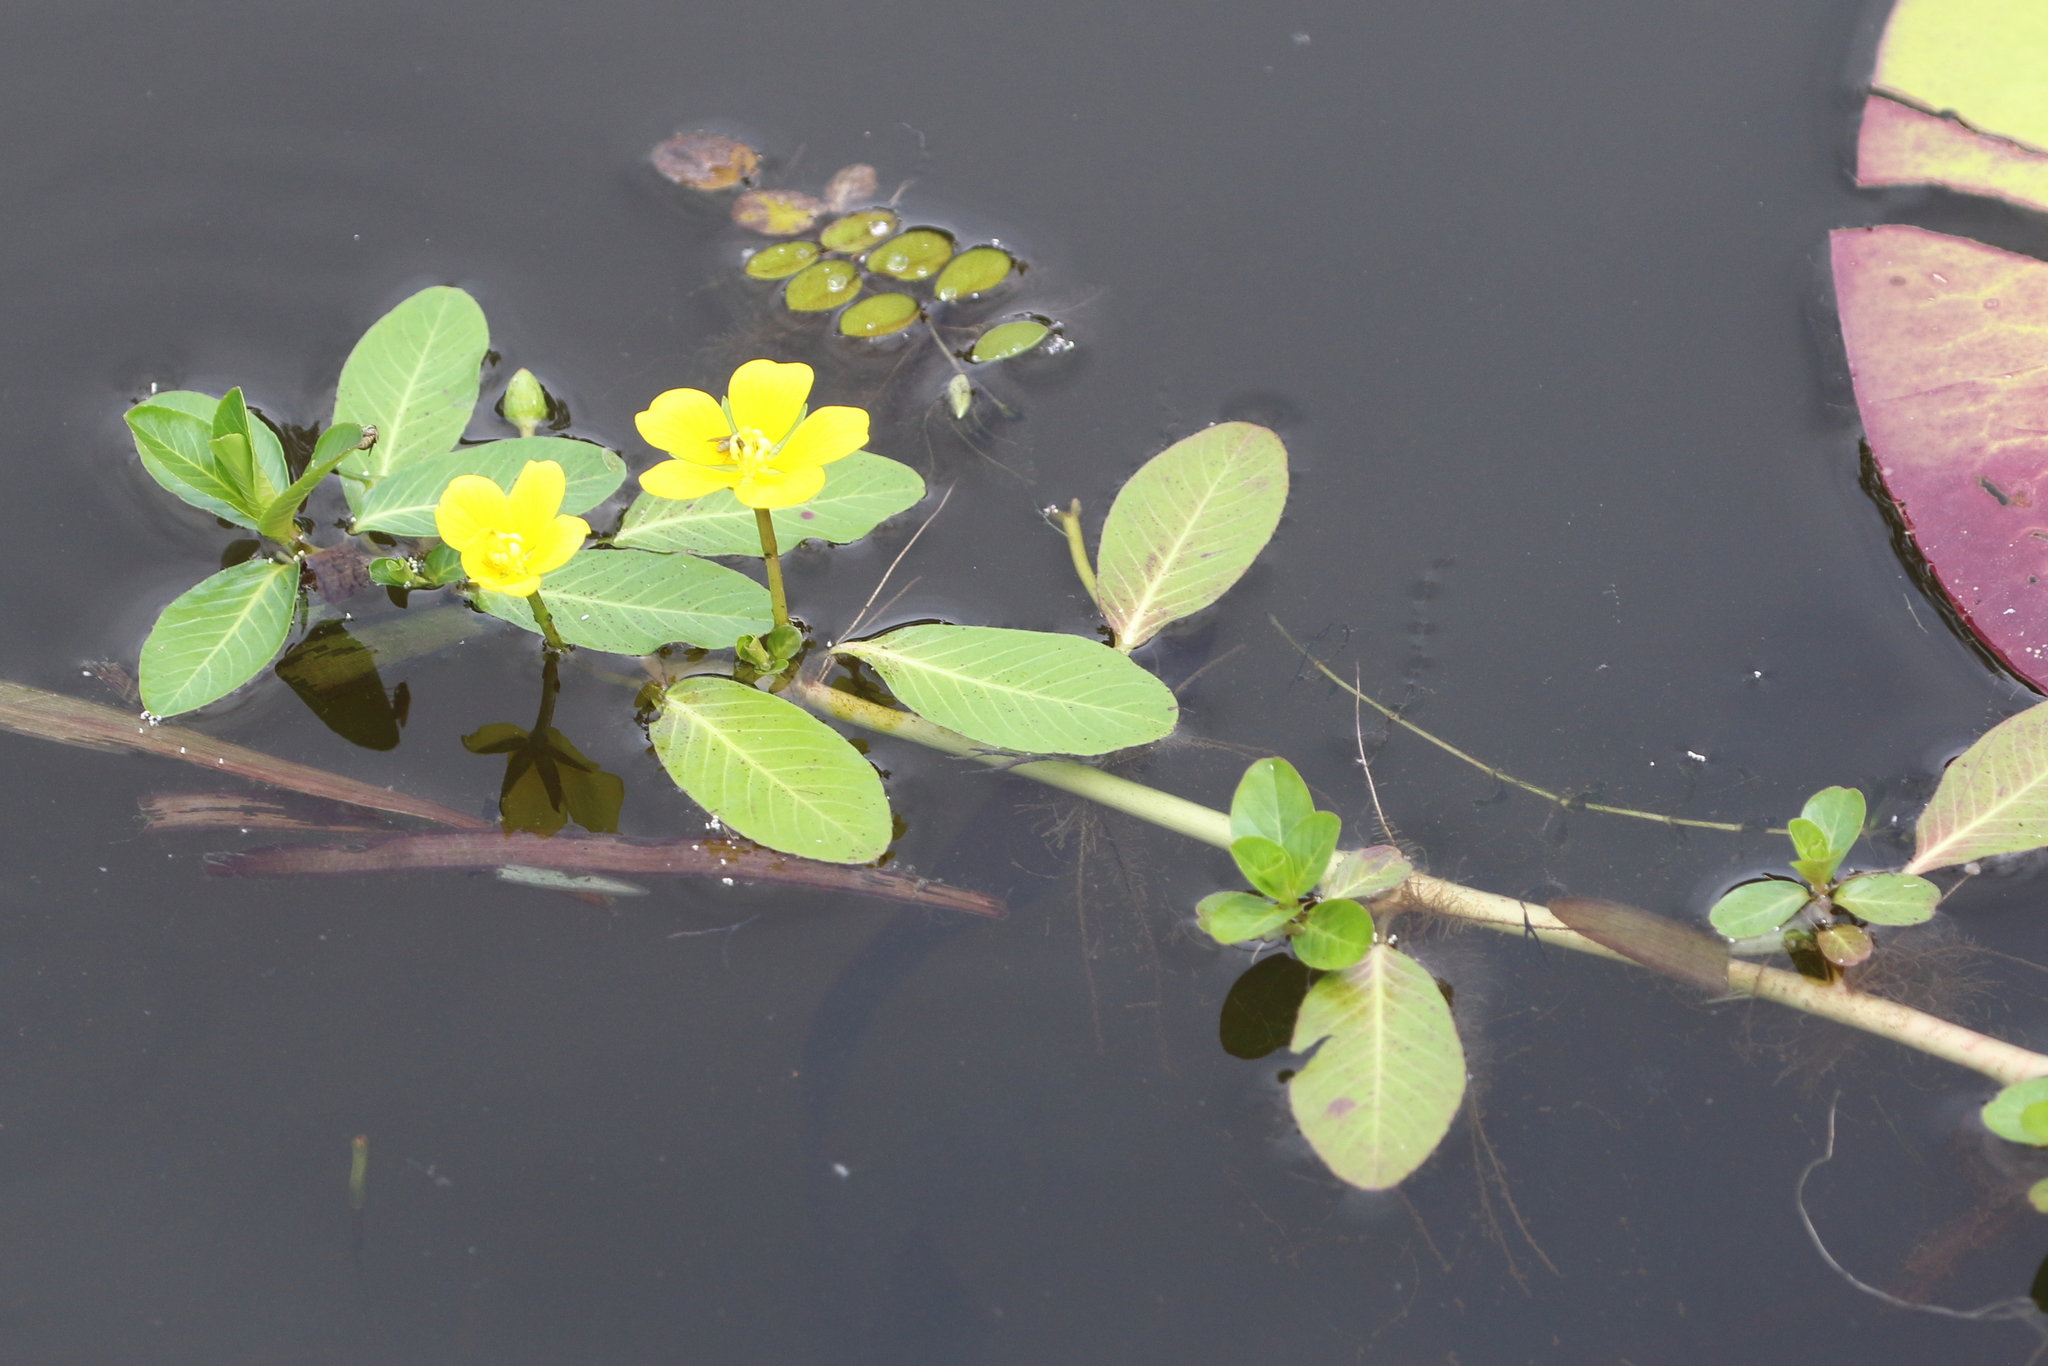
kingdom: Plantae
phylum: Tracheophyta
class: Magnoliopsida
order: Myrtales
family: Onagraceae
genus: Ludwigia
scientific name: Ludwigia peploides
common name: Floating primrose-willow
